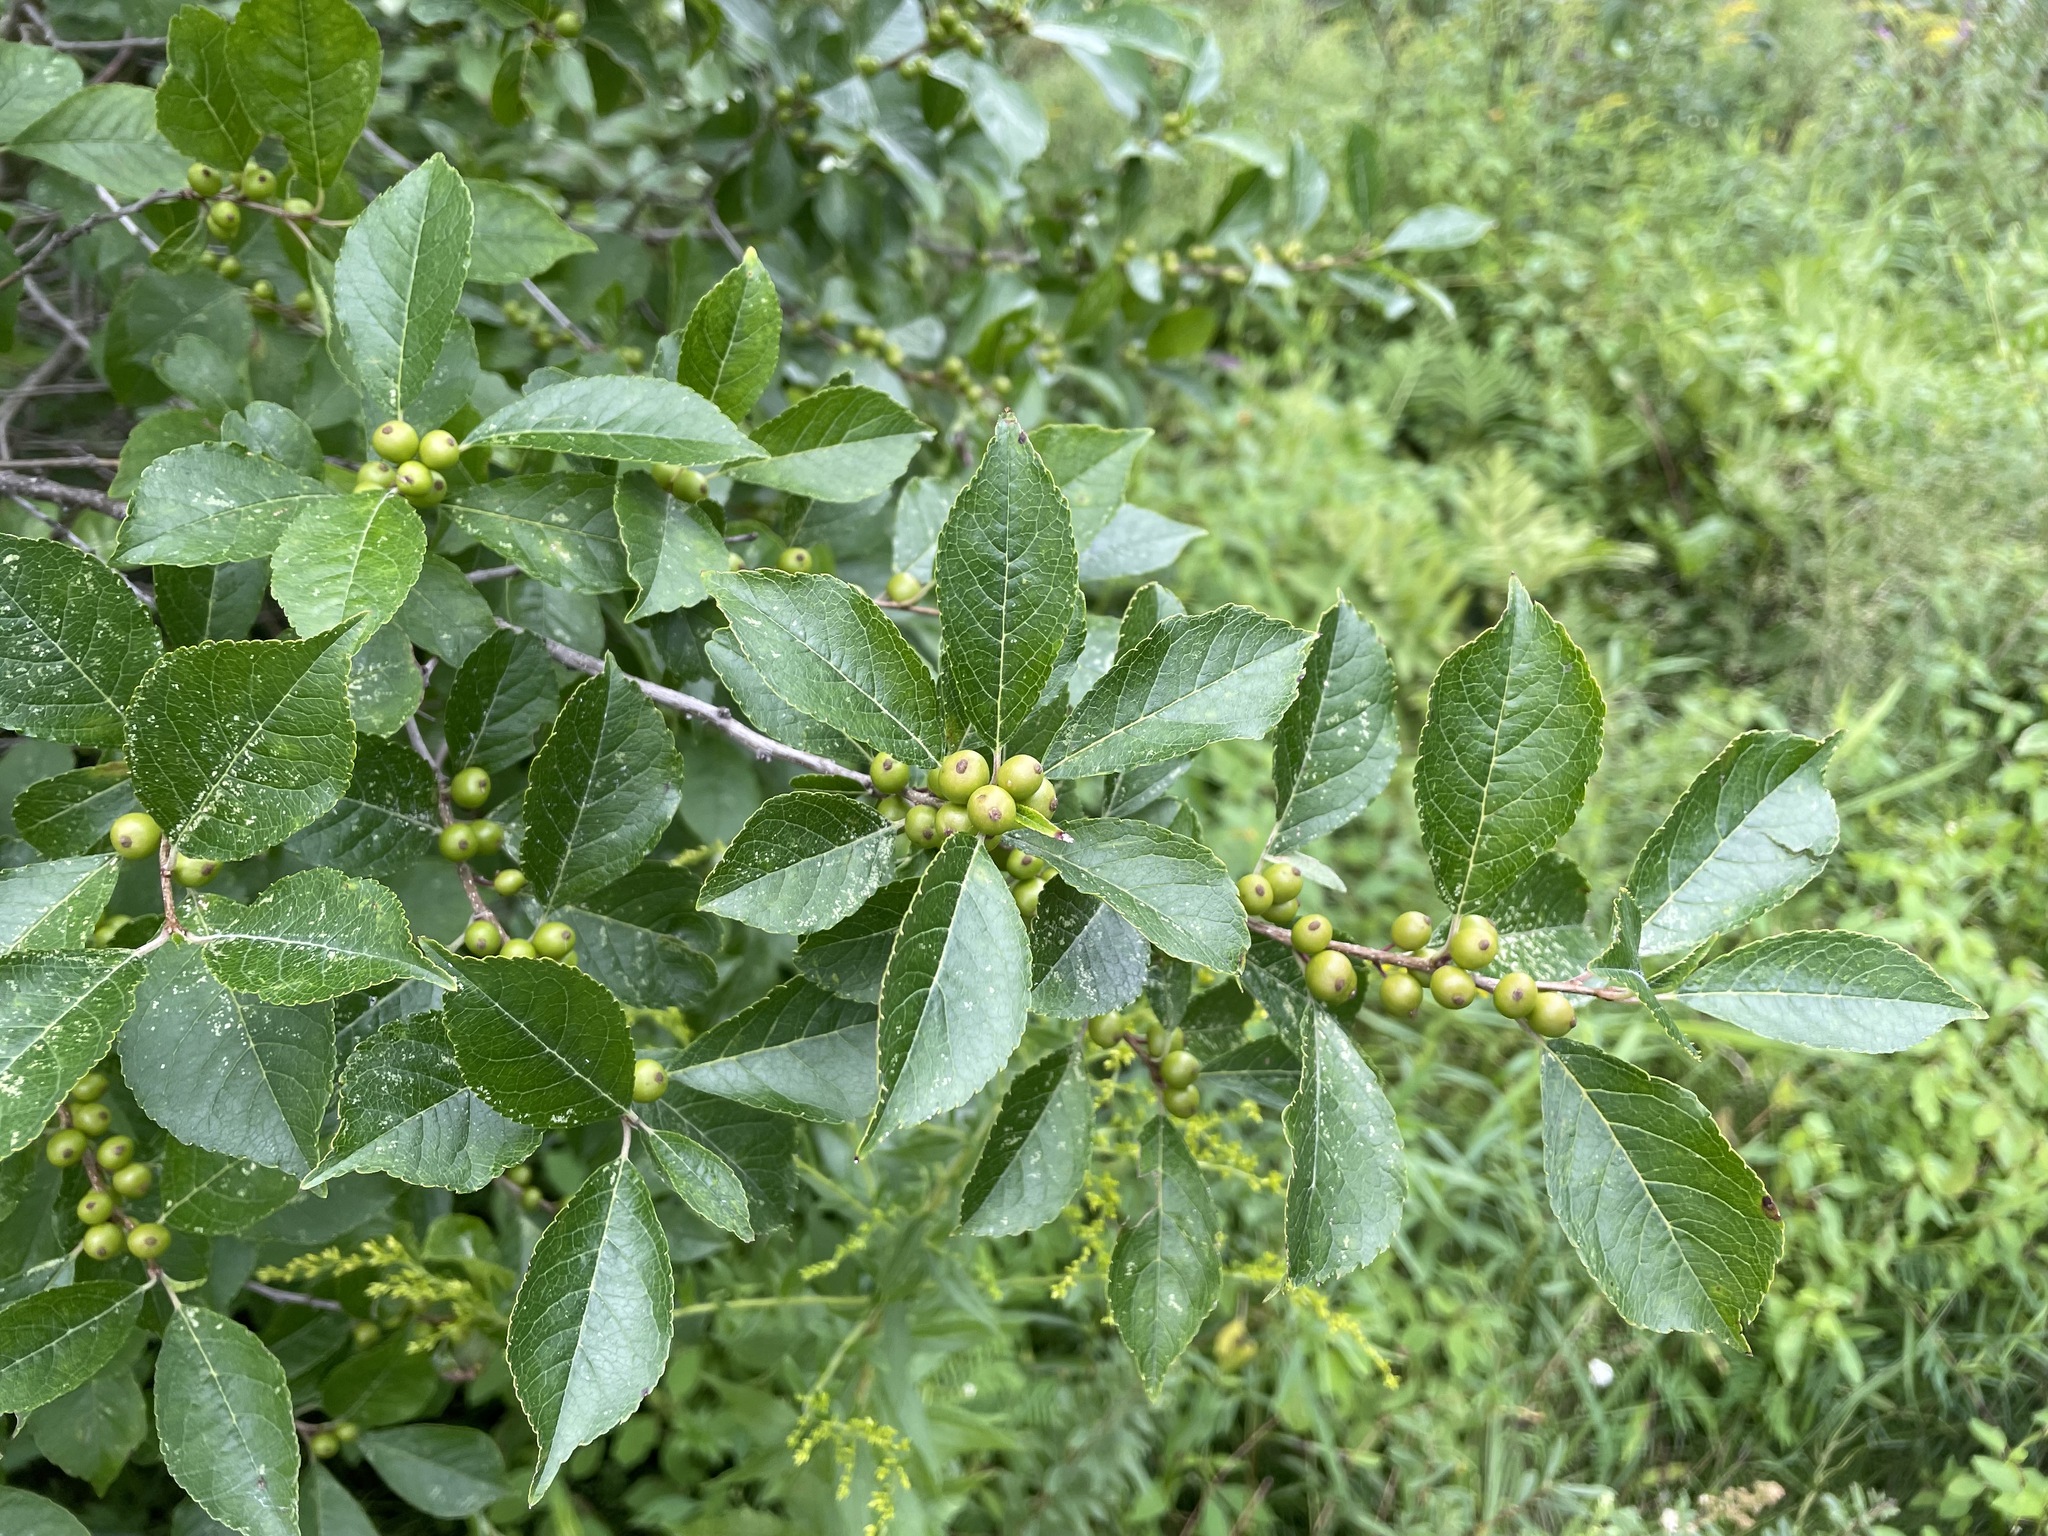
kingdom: Plantae
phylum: Tracheophyta
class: Magnoliopsida
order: Aquifoliales
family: Aquifoliaceae
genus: Ilex
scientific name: Ilex verticillata
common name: Virginia winterberry
